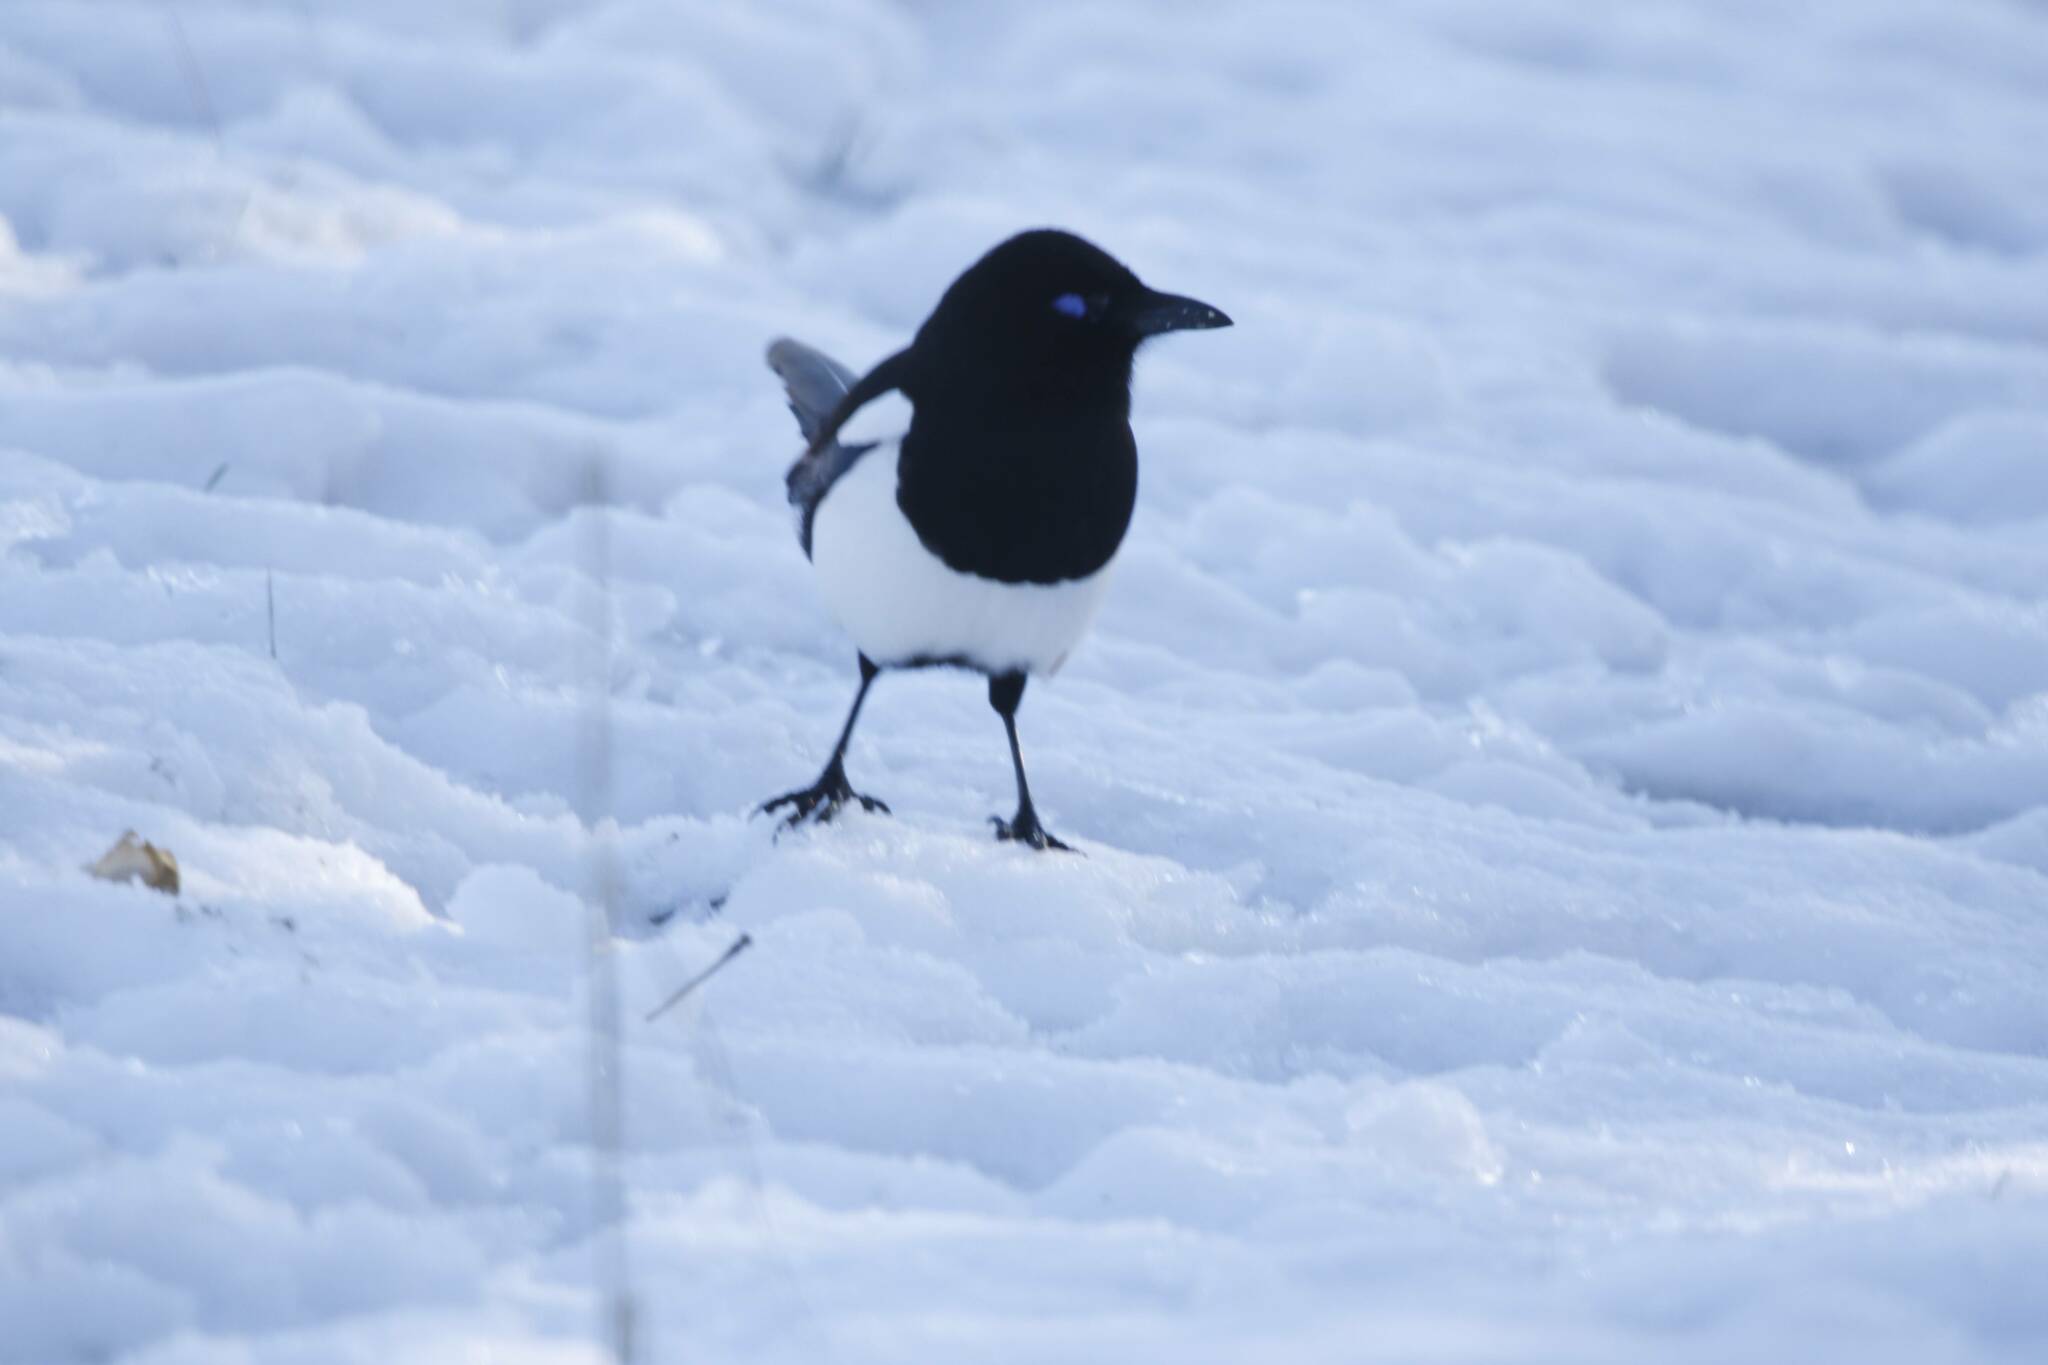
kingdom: Animalia
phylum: Chordata
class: Aves
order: Passeriformes
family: Corvidae
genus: Pica
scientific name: Pica mauritanica
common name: Maghreb magpie
